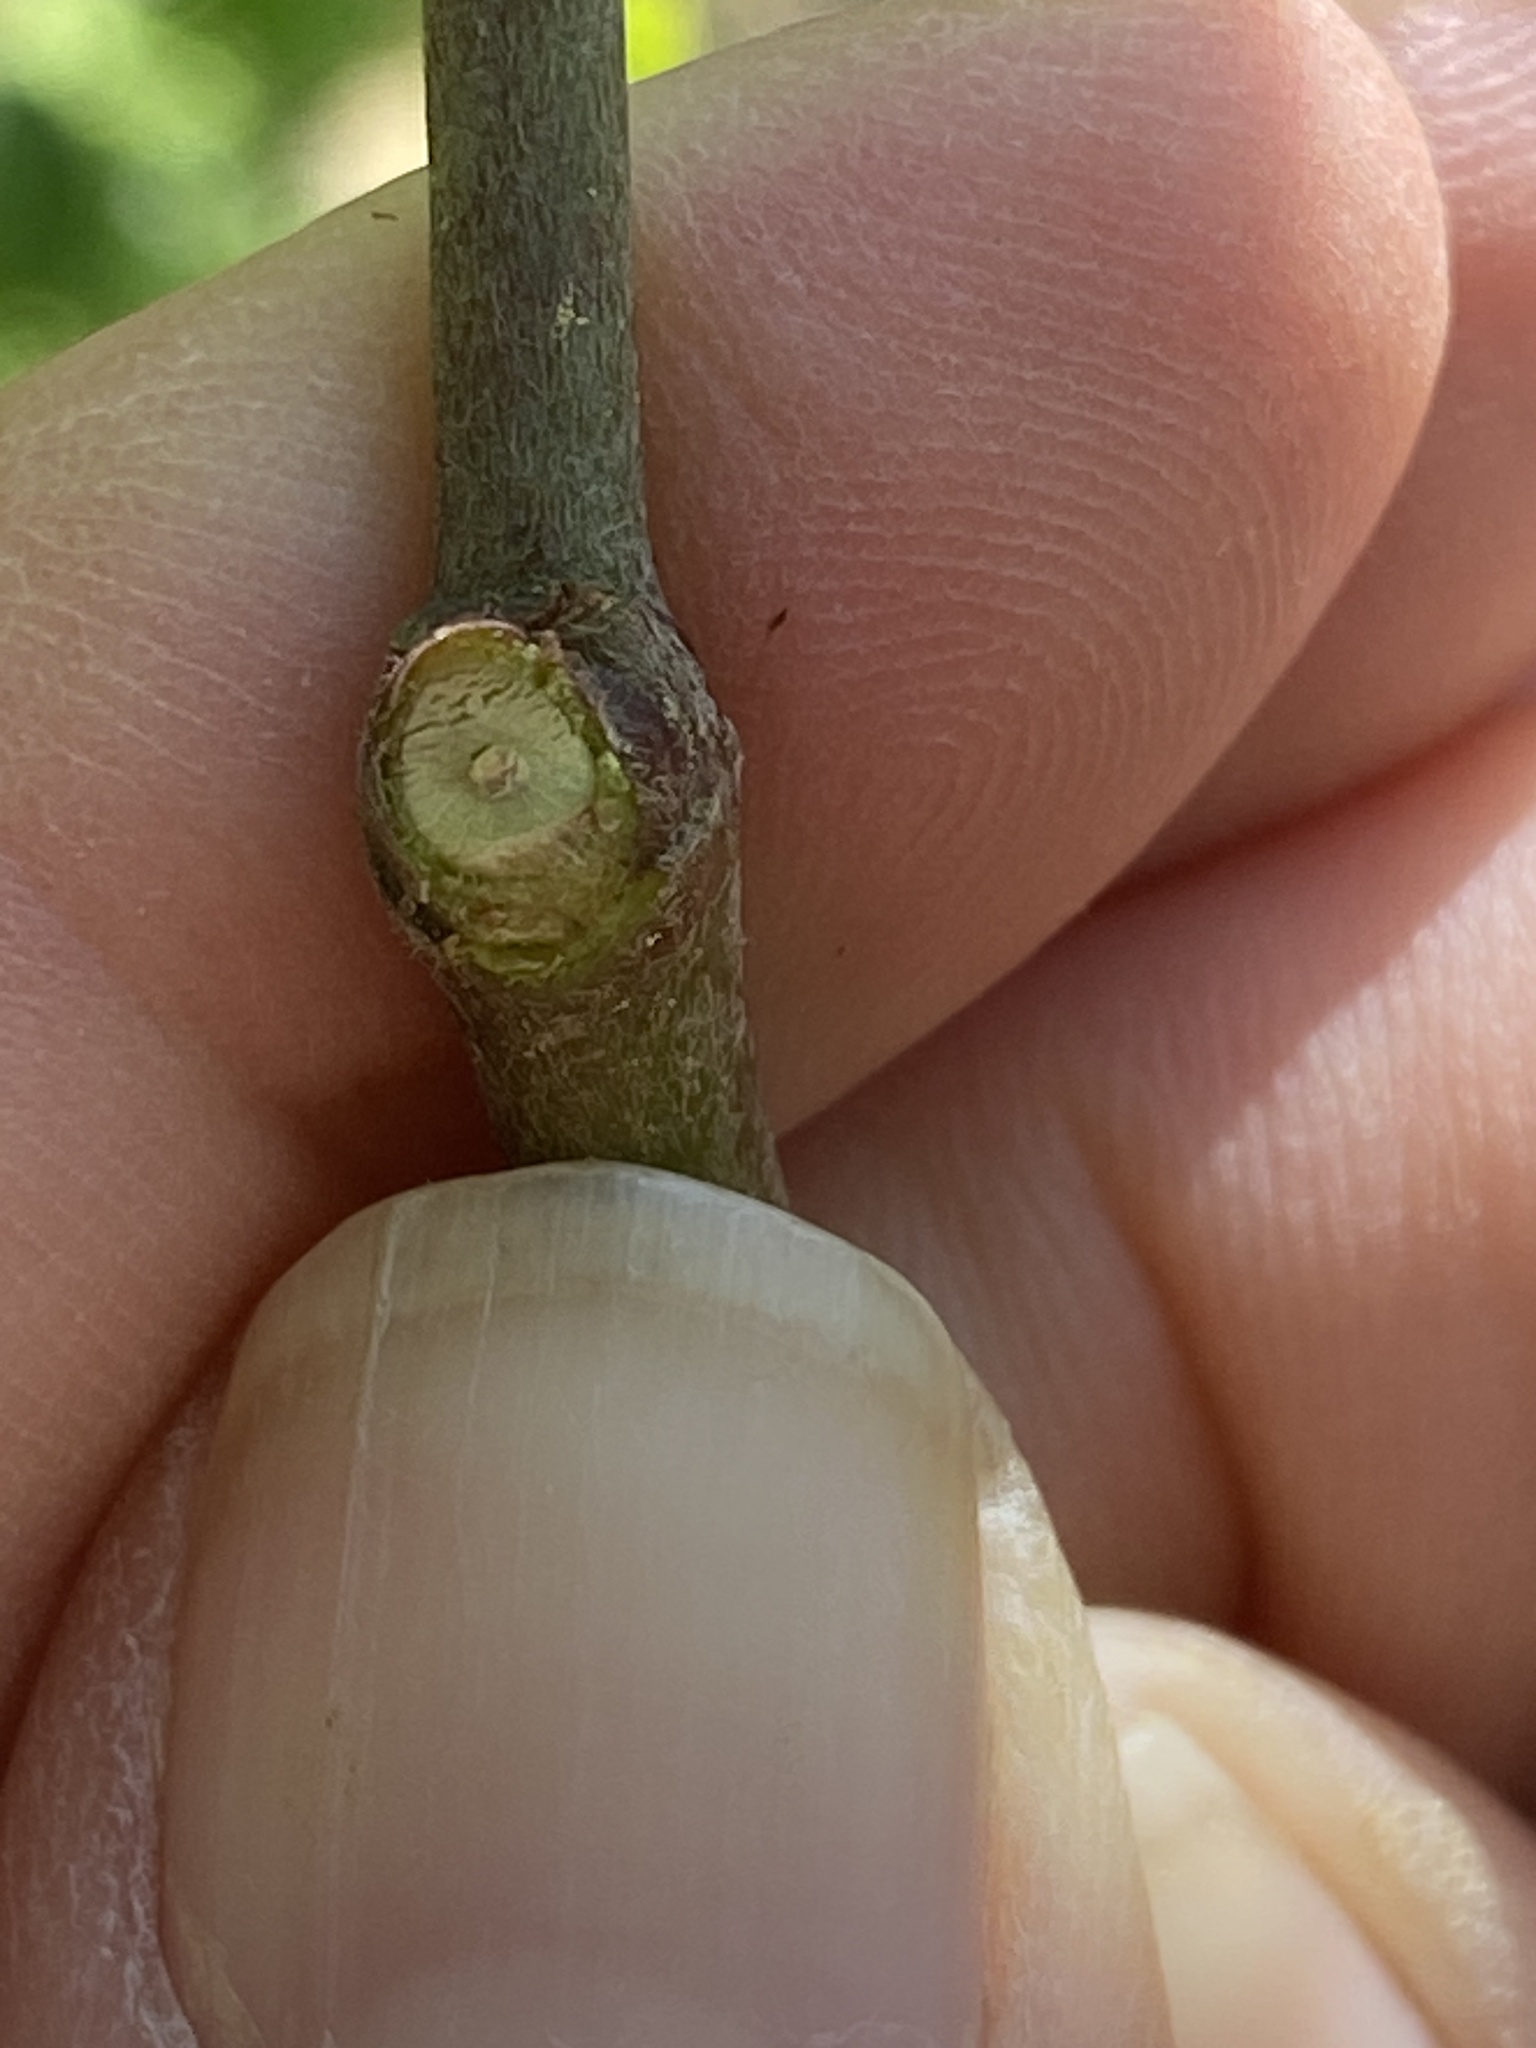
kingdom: Plantae
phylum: Tracheophyta
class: Magnoliopsida
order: Cornales
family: Cornaceae
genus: Cornus
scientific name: Cornus amomum
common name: Silky dogwood
